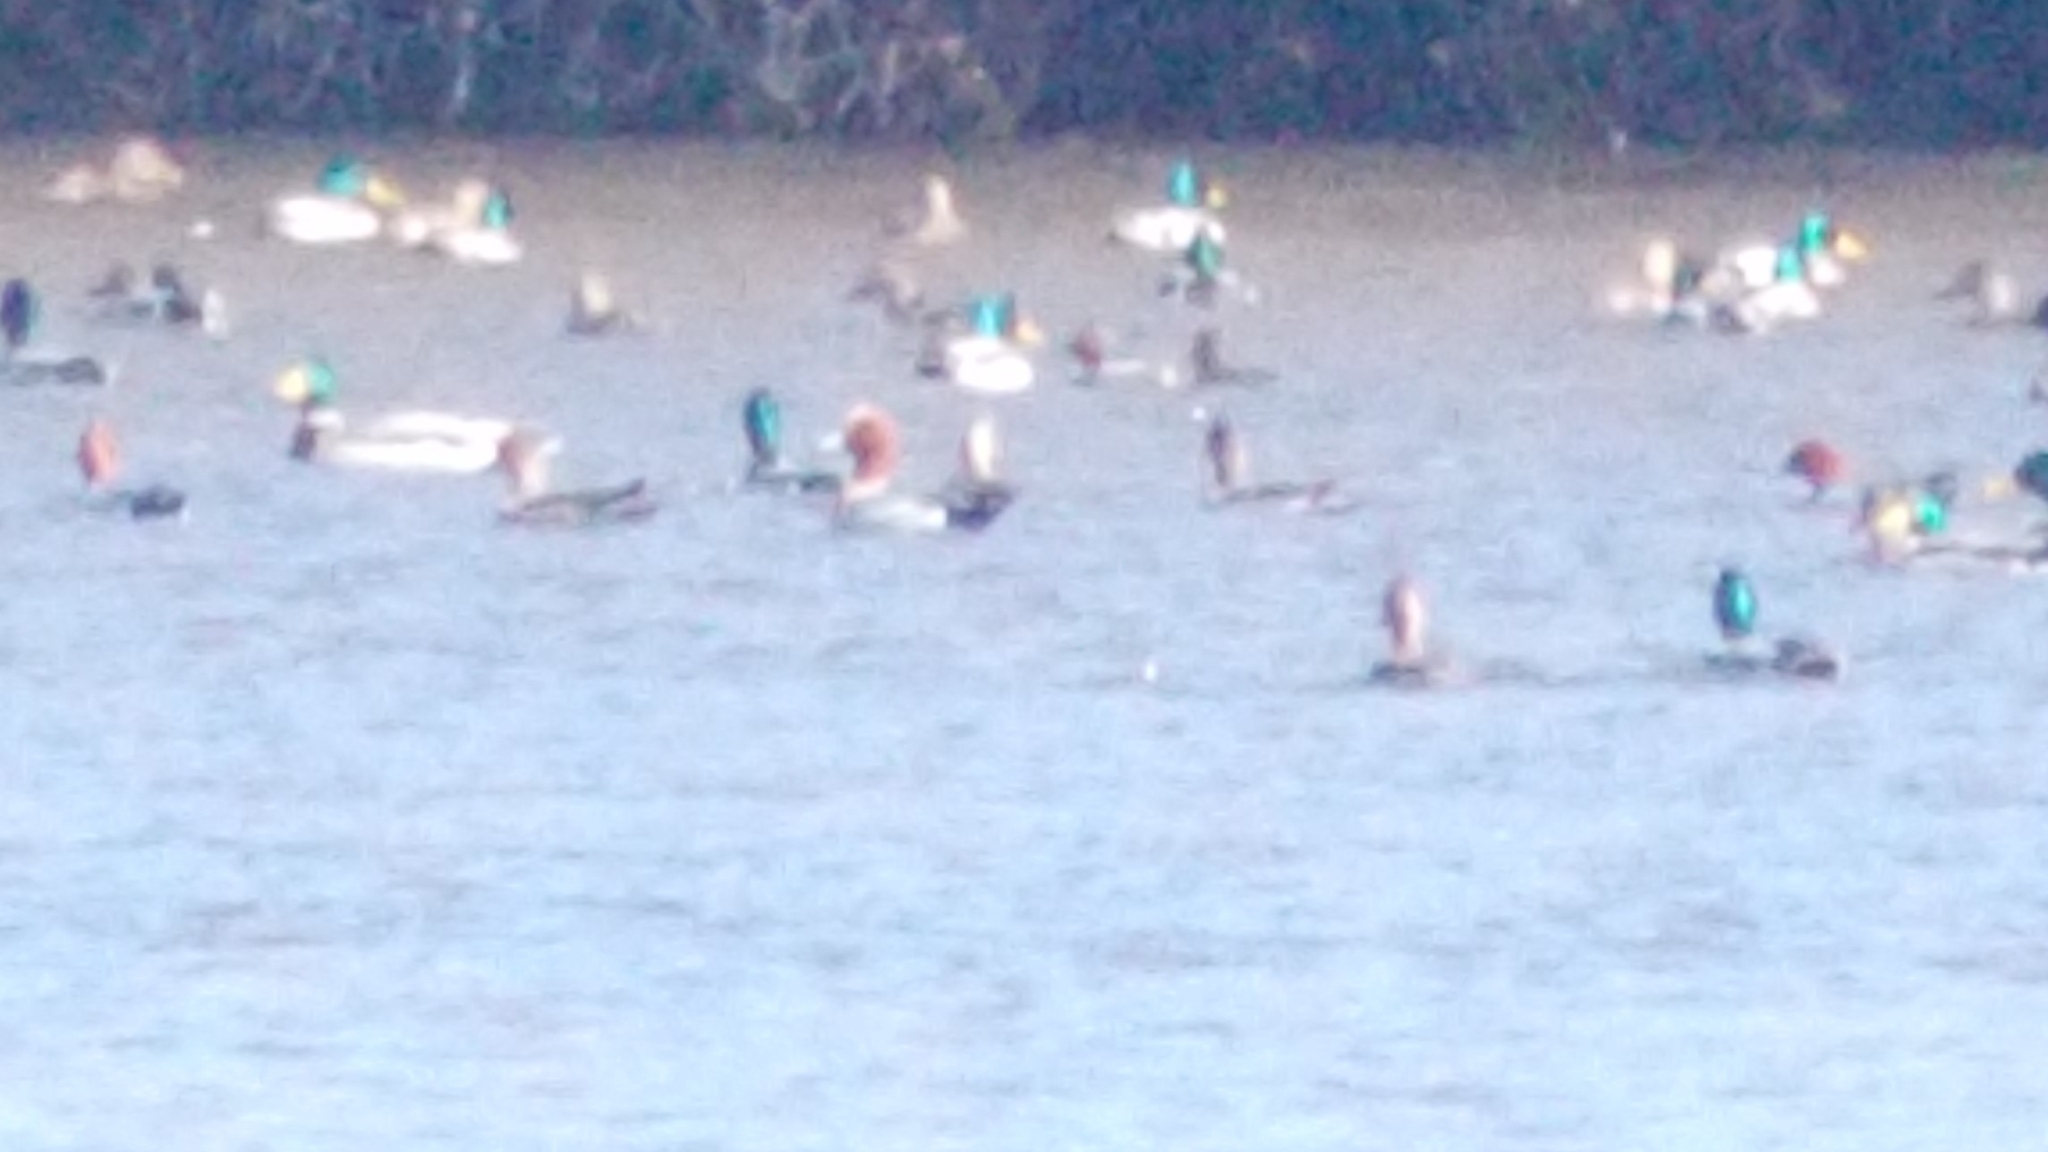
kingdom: Animalia
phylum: Chordata
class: Aves
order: Anseriformes
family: Anatidae
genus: Mareca
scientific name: Mareca penelope
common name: Eurasian wigeon
